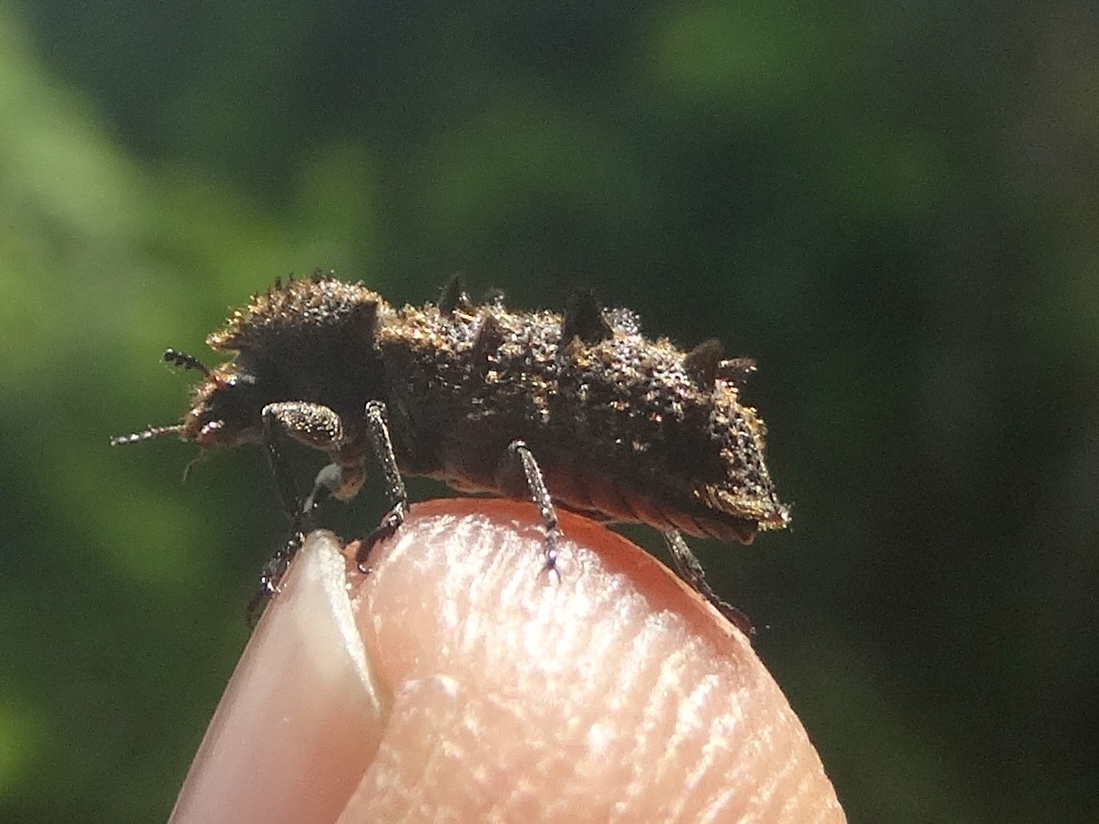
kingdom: Animalia
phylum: Arthropoda
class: Insecta
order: Coleoptera
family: Bostrichidae
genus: Lichenophanes
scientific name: Lichenophanes penicillatus
